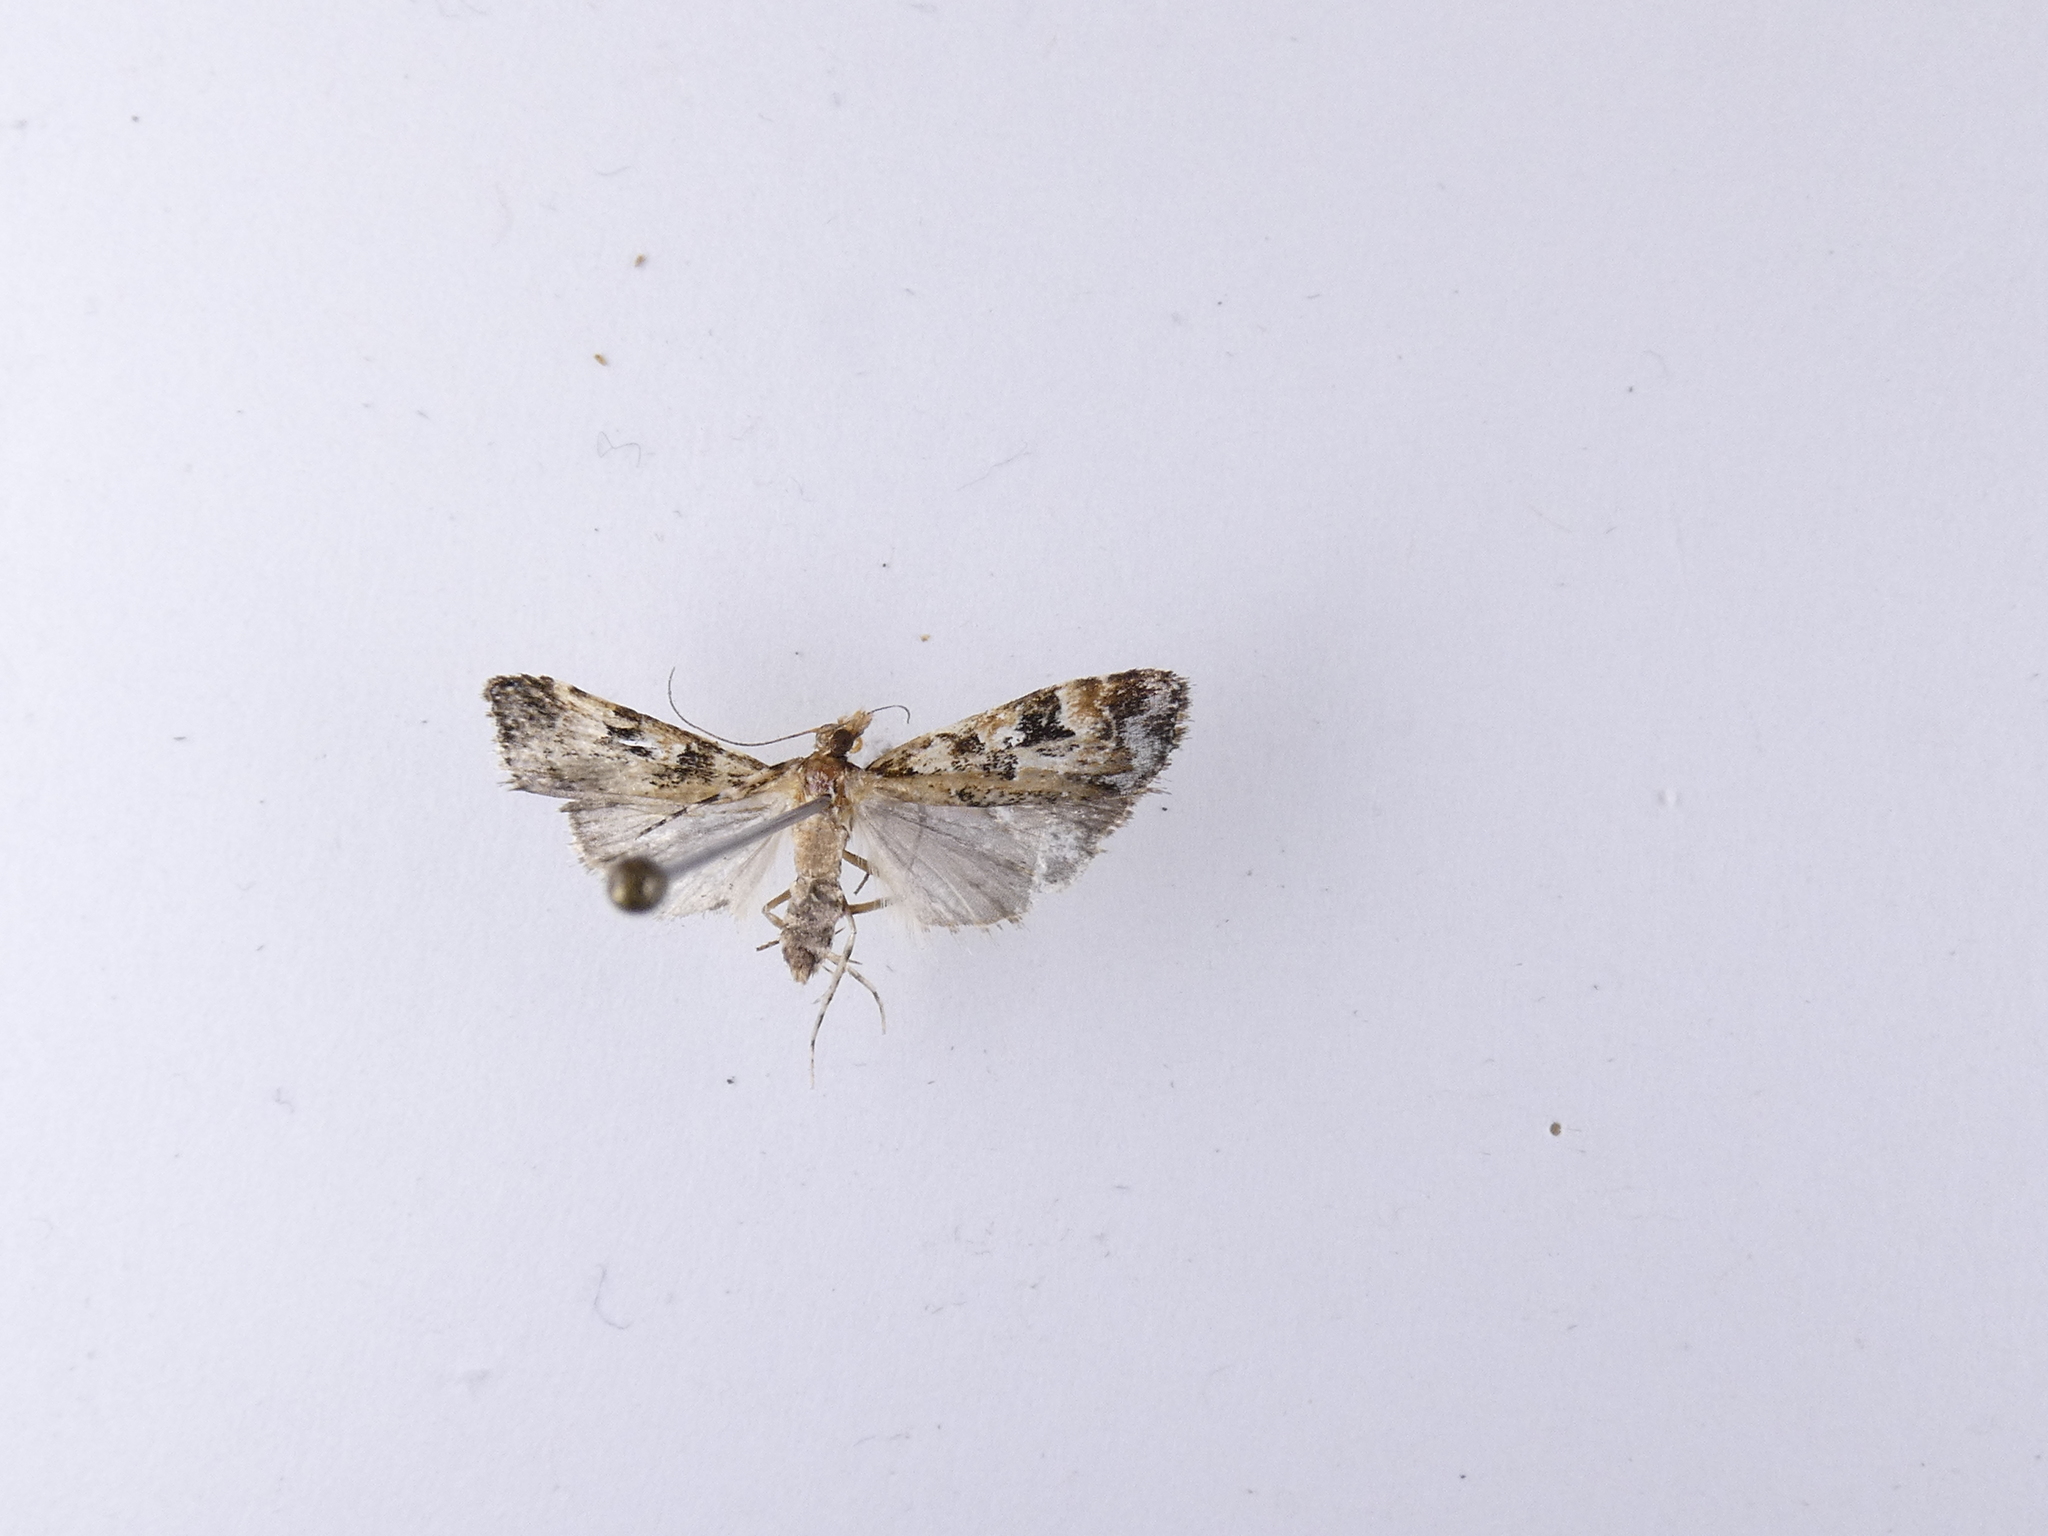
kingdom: Animalia
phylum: Arthropoda
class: Insecta
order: Lepidoptera
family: Crambidae
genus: Scoparia
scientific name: Scoparia ustimacula
